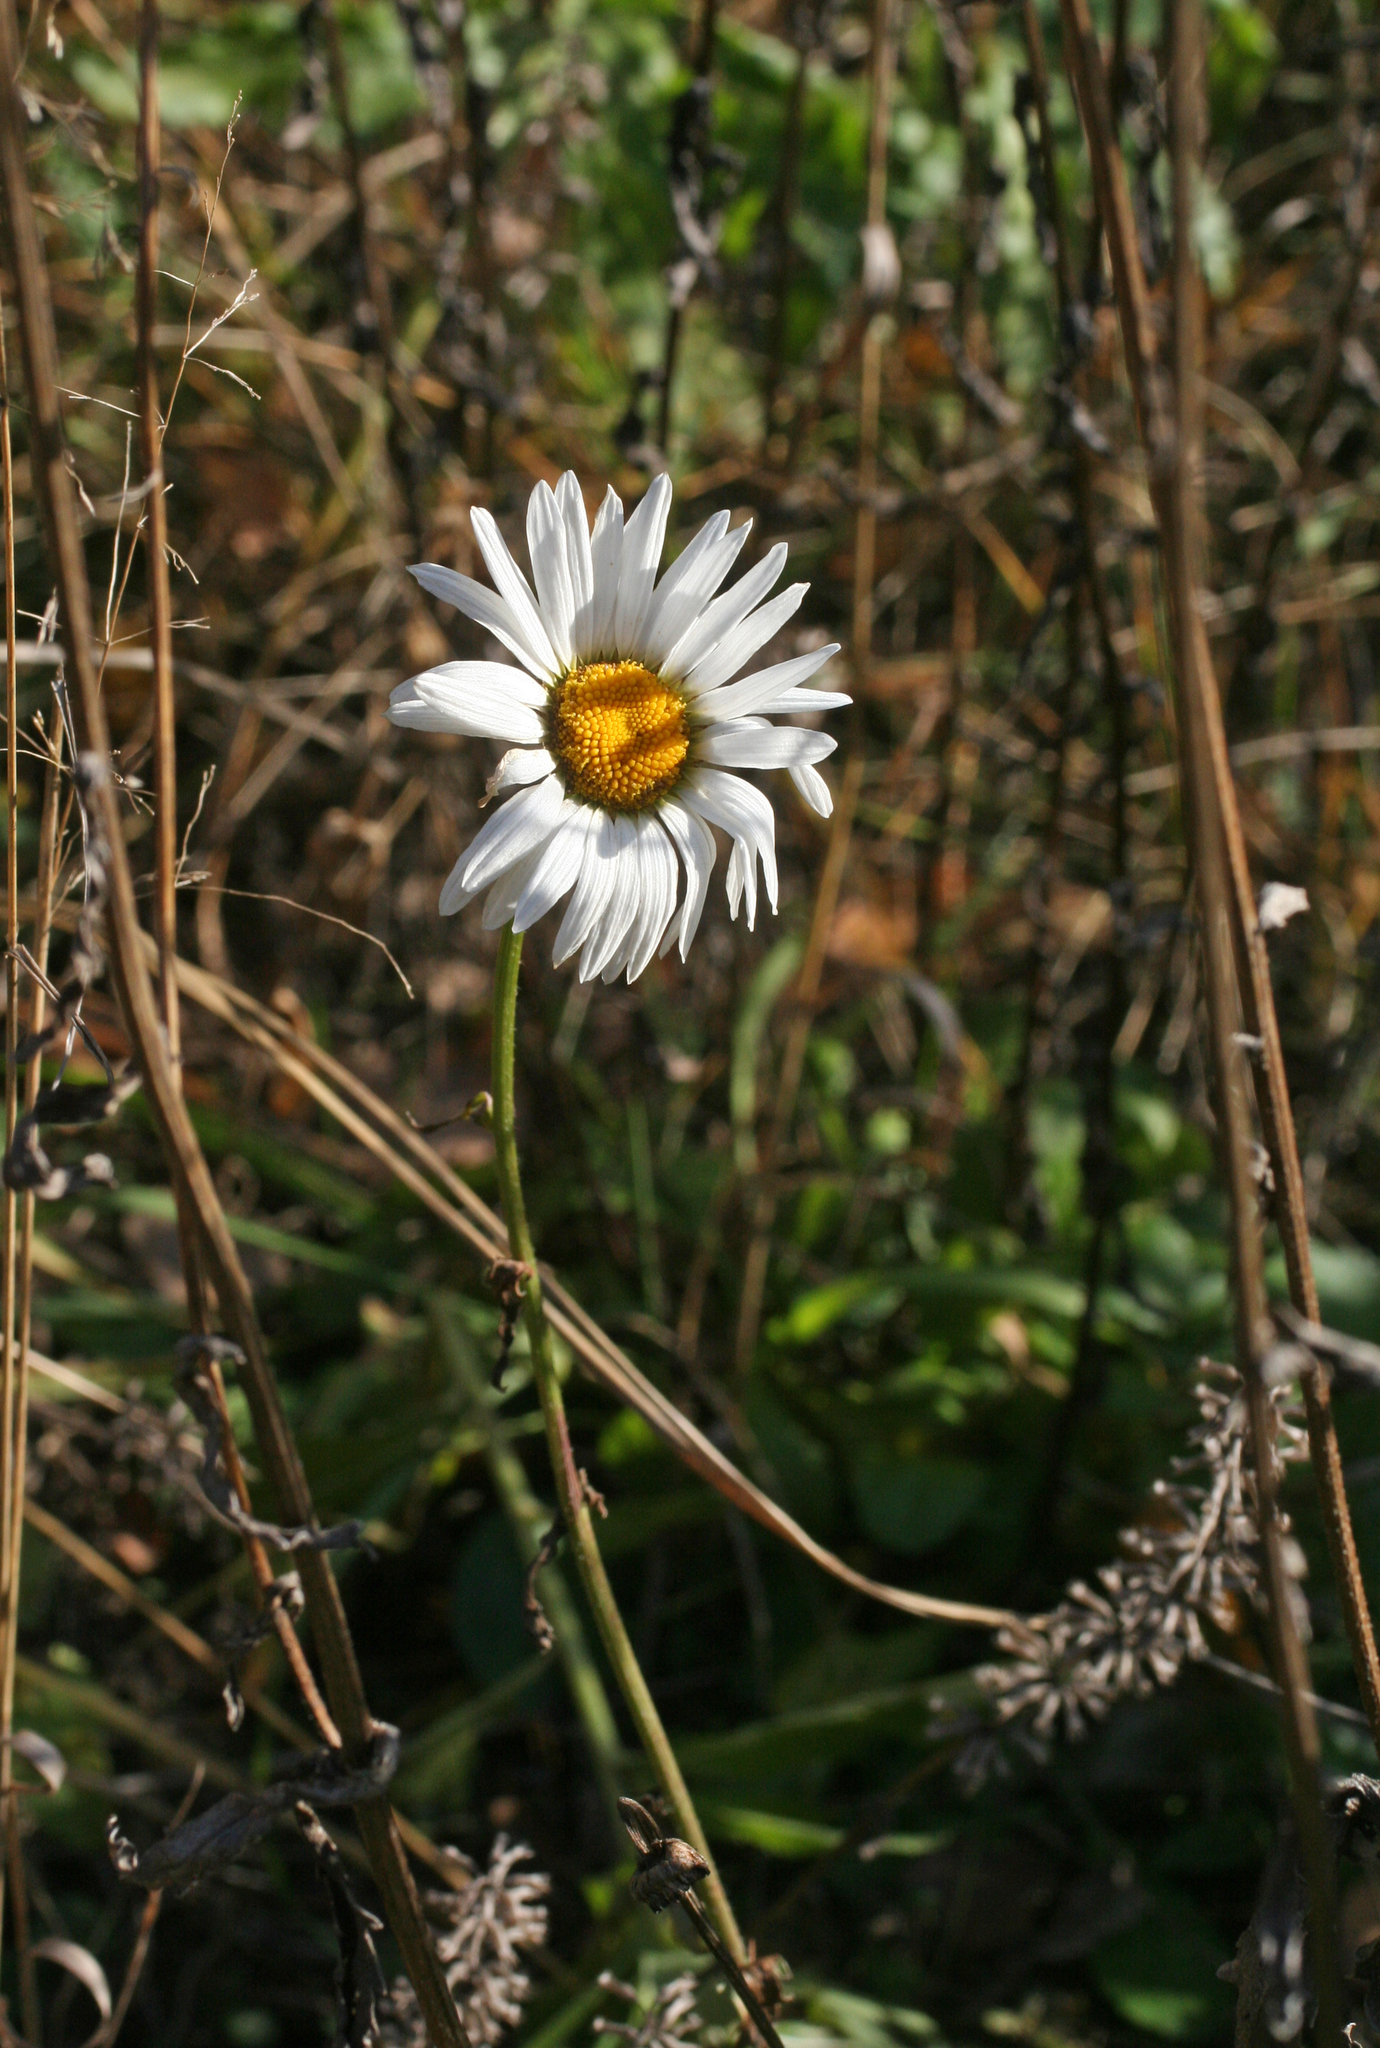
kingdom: Plantae
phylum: Tracheophyta
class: Magnoliopsida
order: Asterales
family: Asteraceae
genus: Leucanthemum
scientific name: Leucanthemum ircutianum
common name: Daisy
